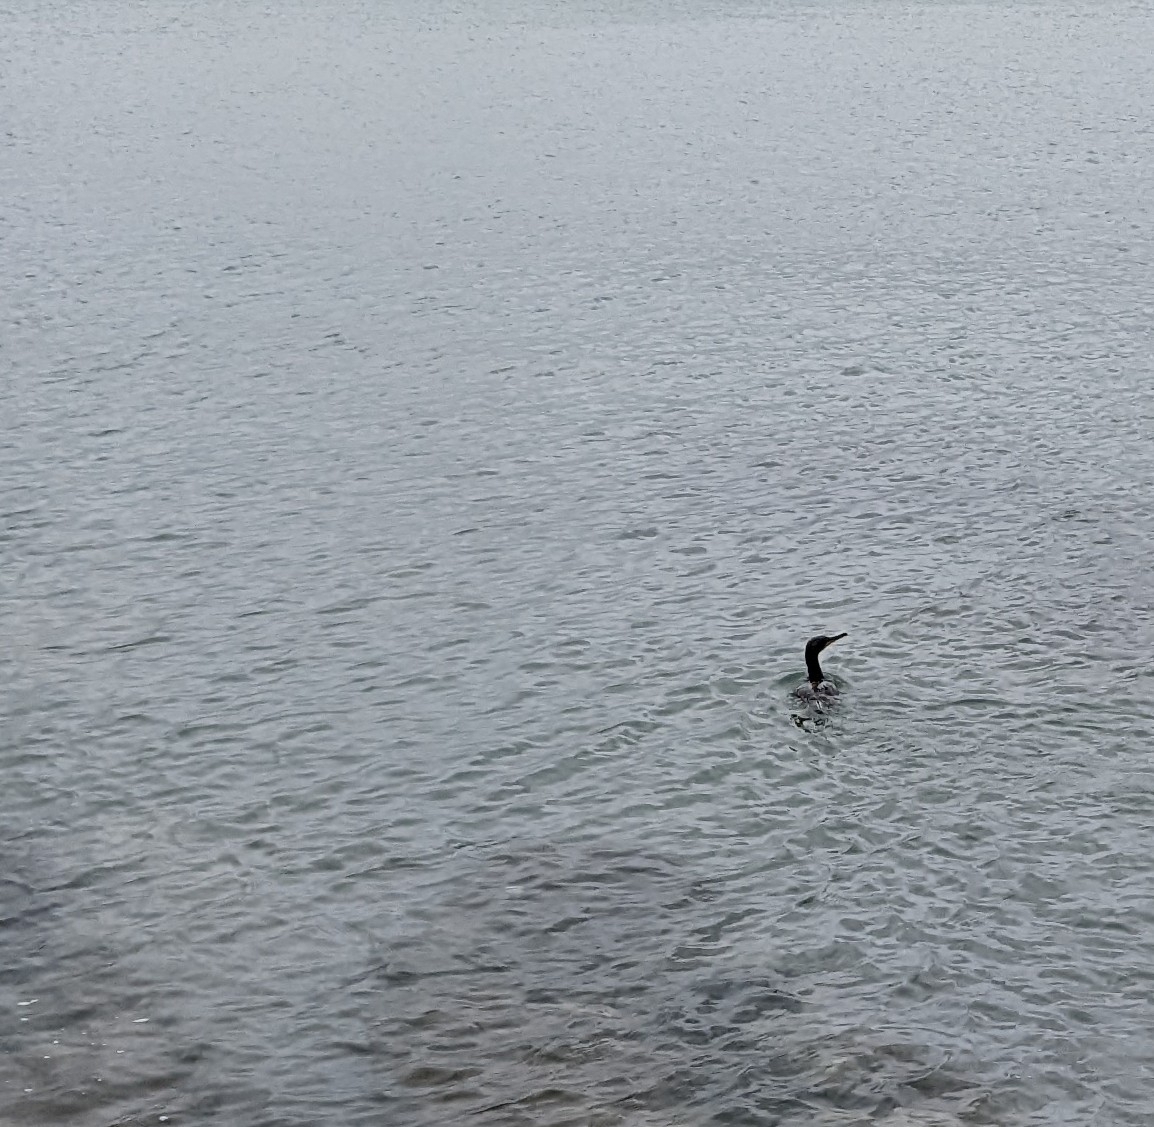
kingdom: Animalia
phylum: Chordata
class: Aves
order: Suliformes
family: Phalacrocoracidae
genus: Phalacrocorax
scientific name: Phalacrocorax aristotelis
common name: European shag
